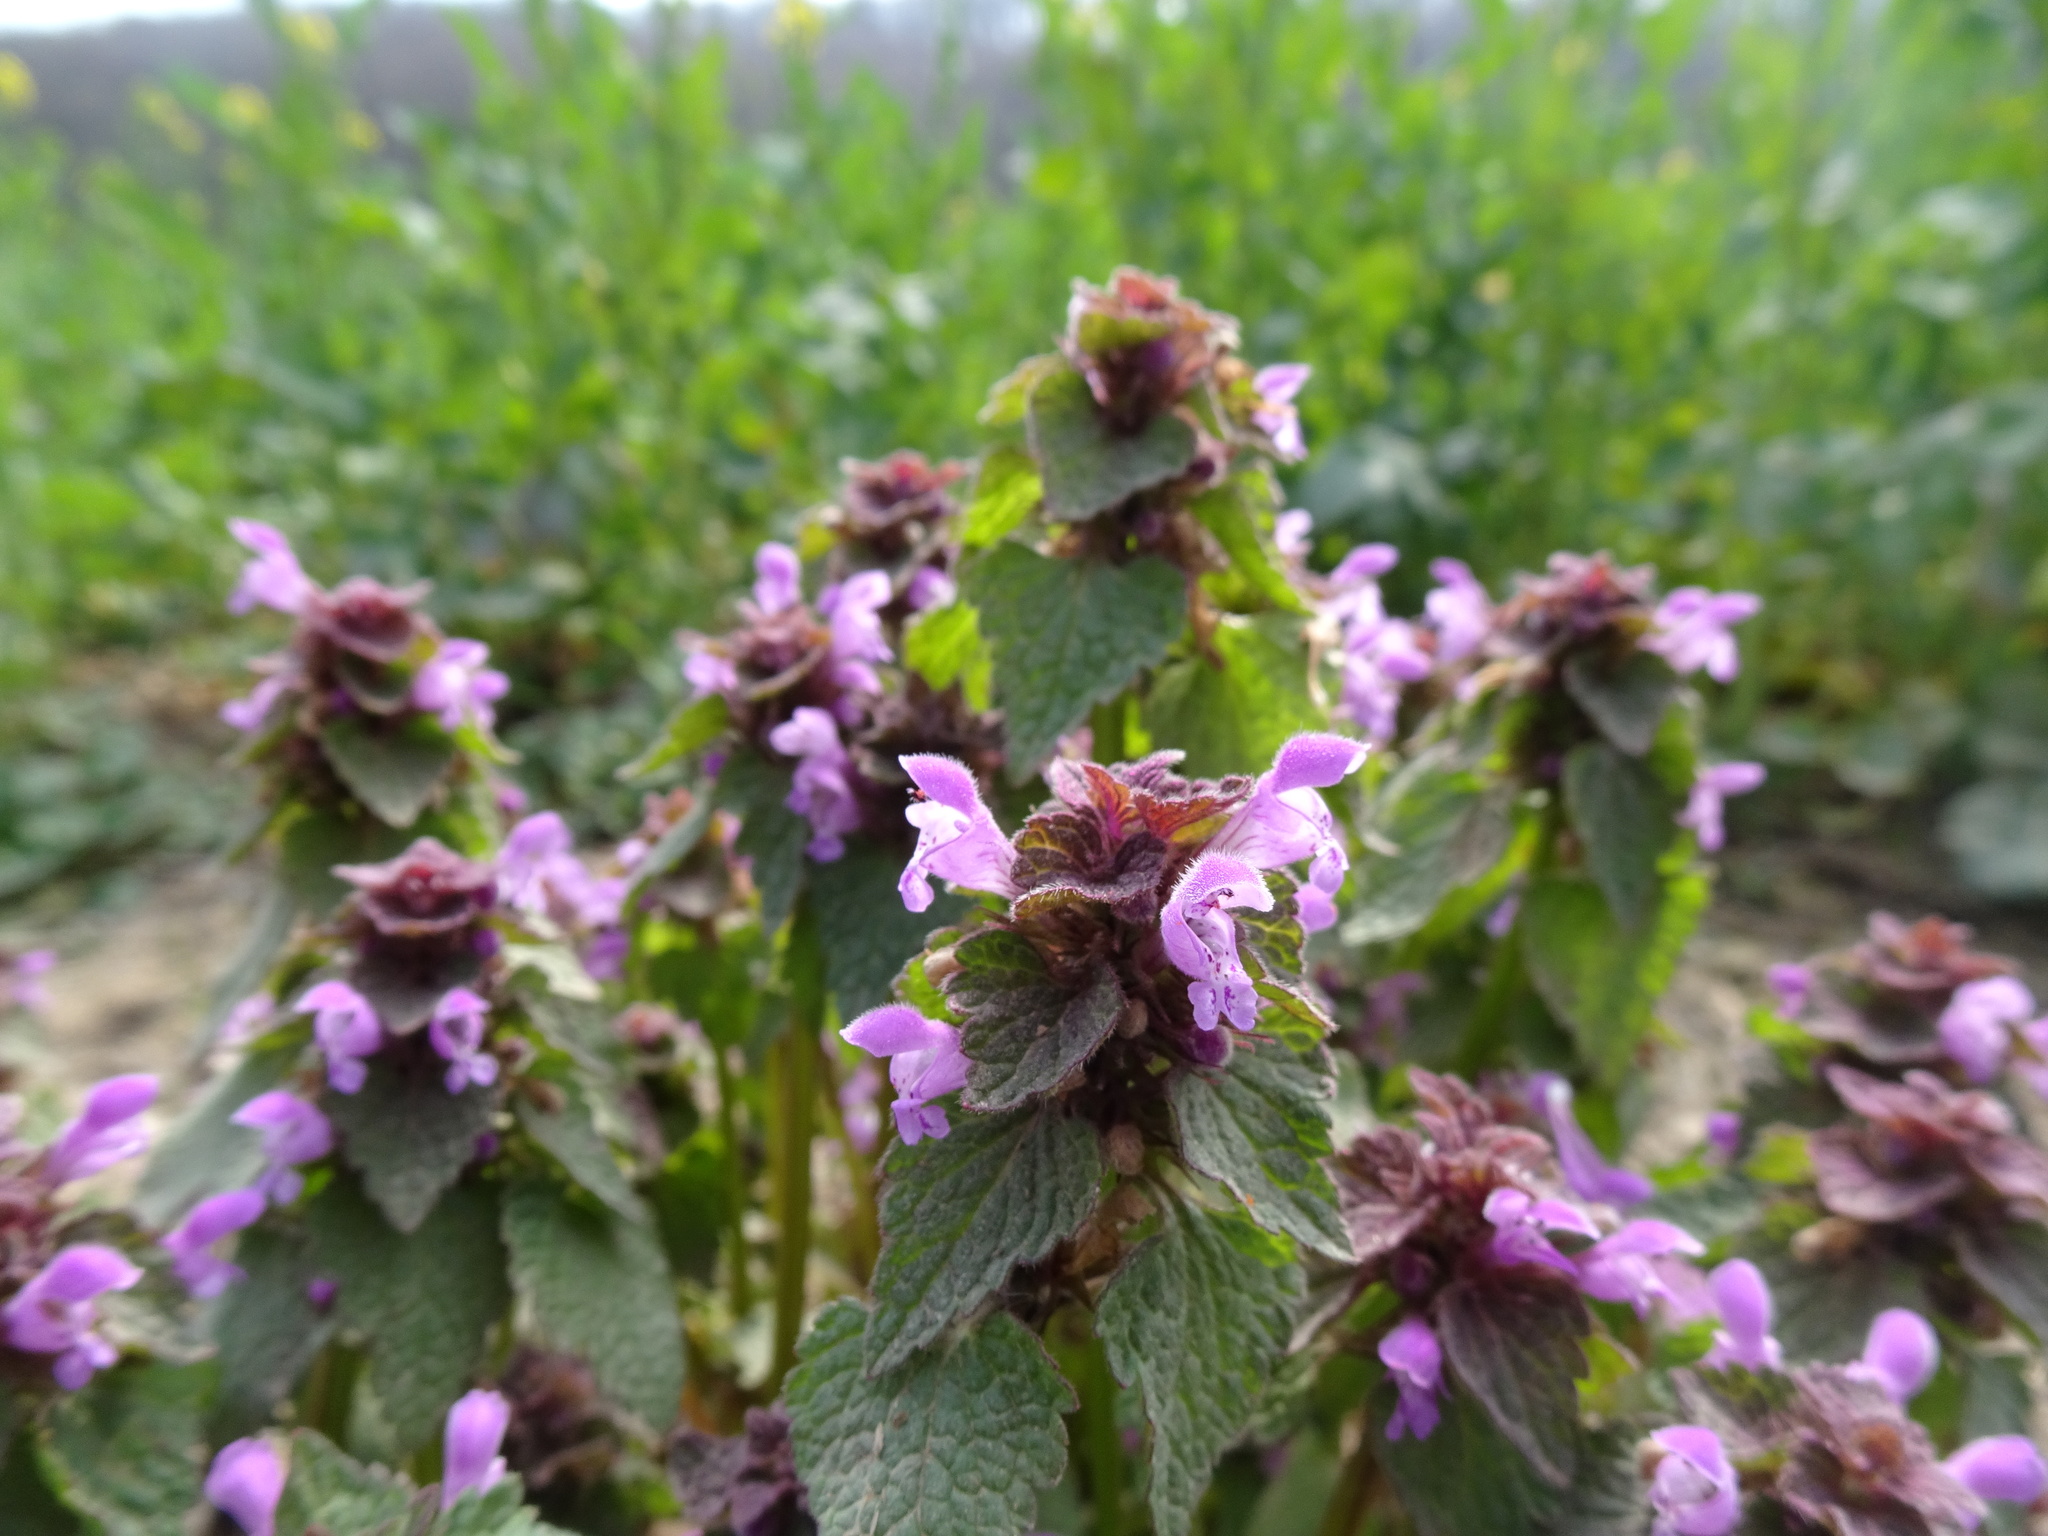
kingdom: Plantae
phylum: Tracheophyta
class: Magnoliopsida
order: Lamiales
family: Lamiaceae
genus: Lamium
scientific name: Lamium purpureum
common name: Red dead-nettle
